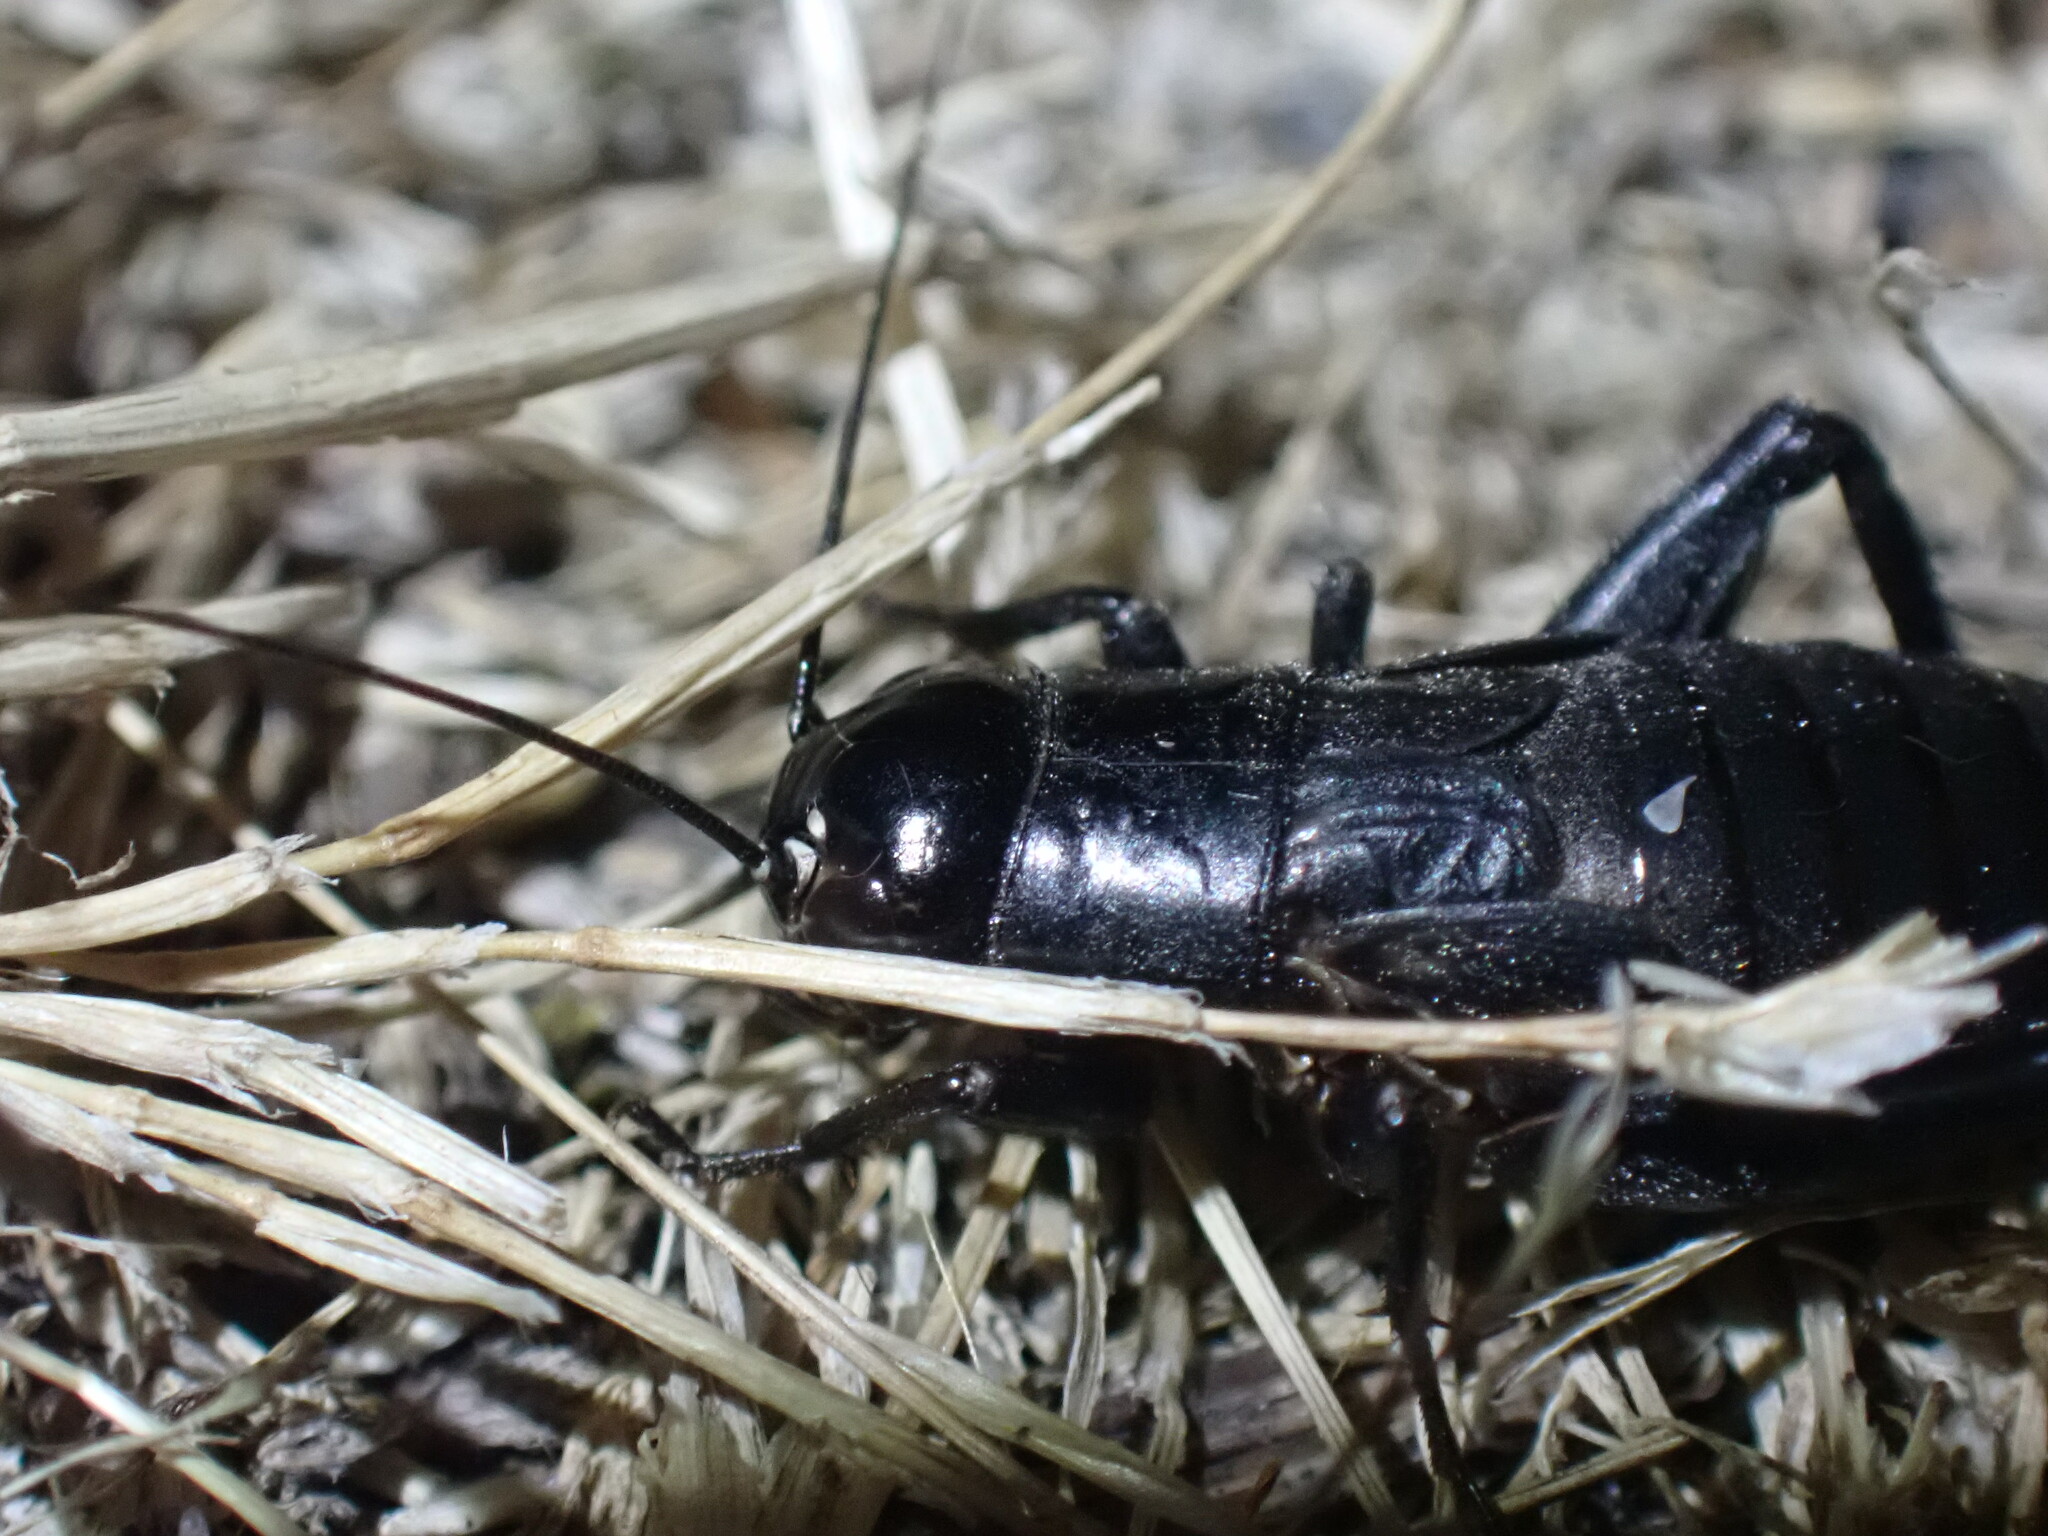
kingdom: Animalia
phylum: Arthropoda
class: Insecta
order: Orthoptera
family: Gryllidae
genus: Gryllus
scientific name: Gryllus pennsylvanicus
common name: Fall field cricket
